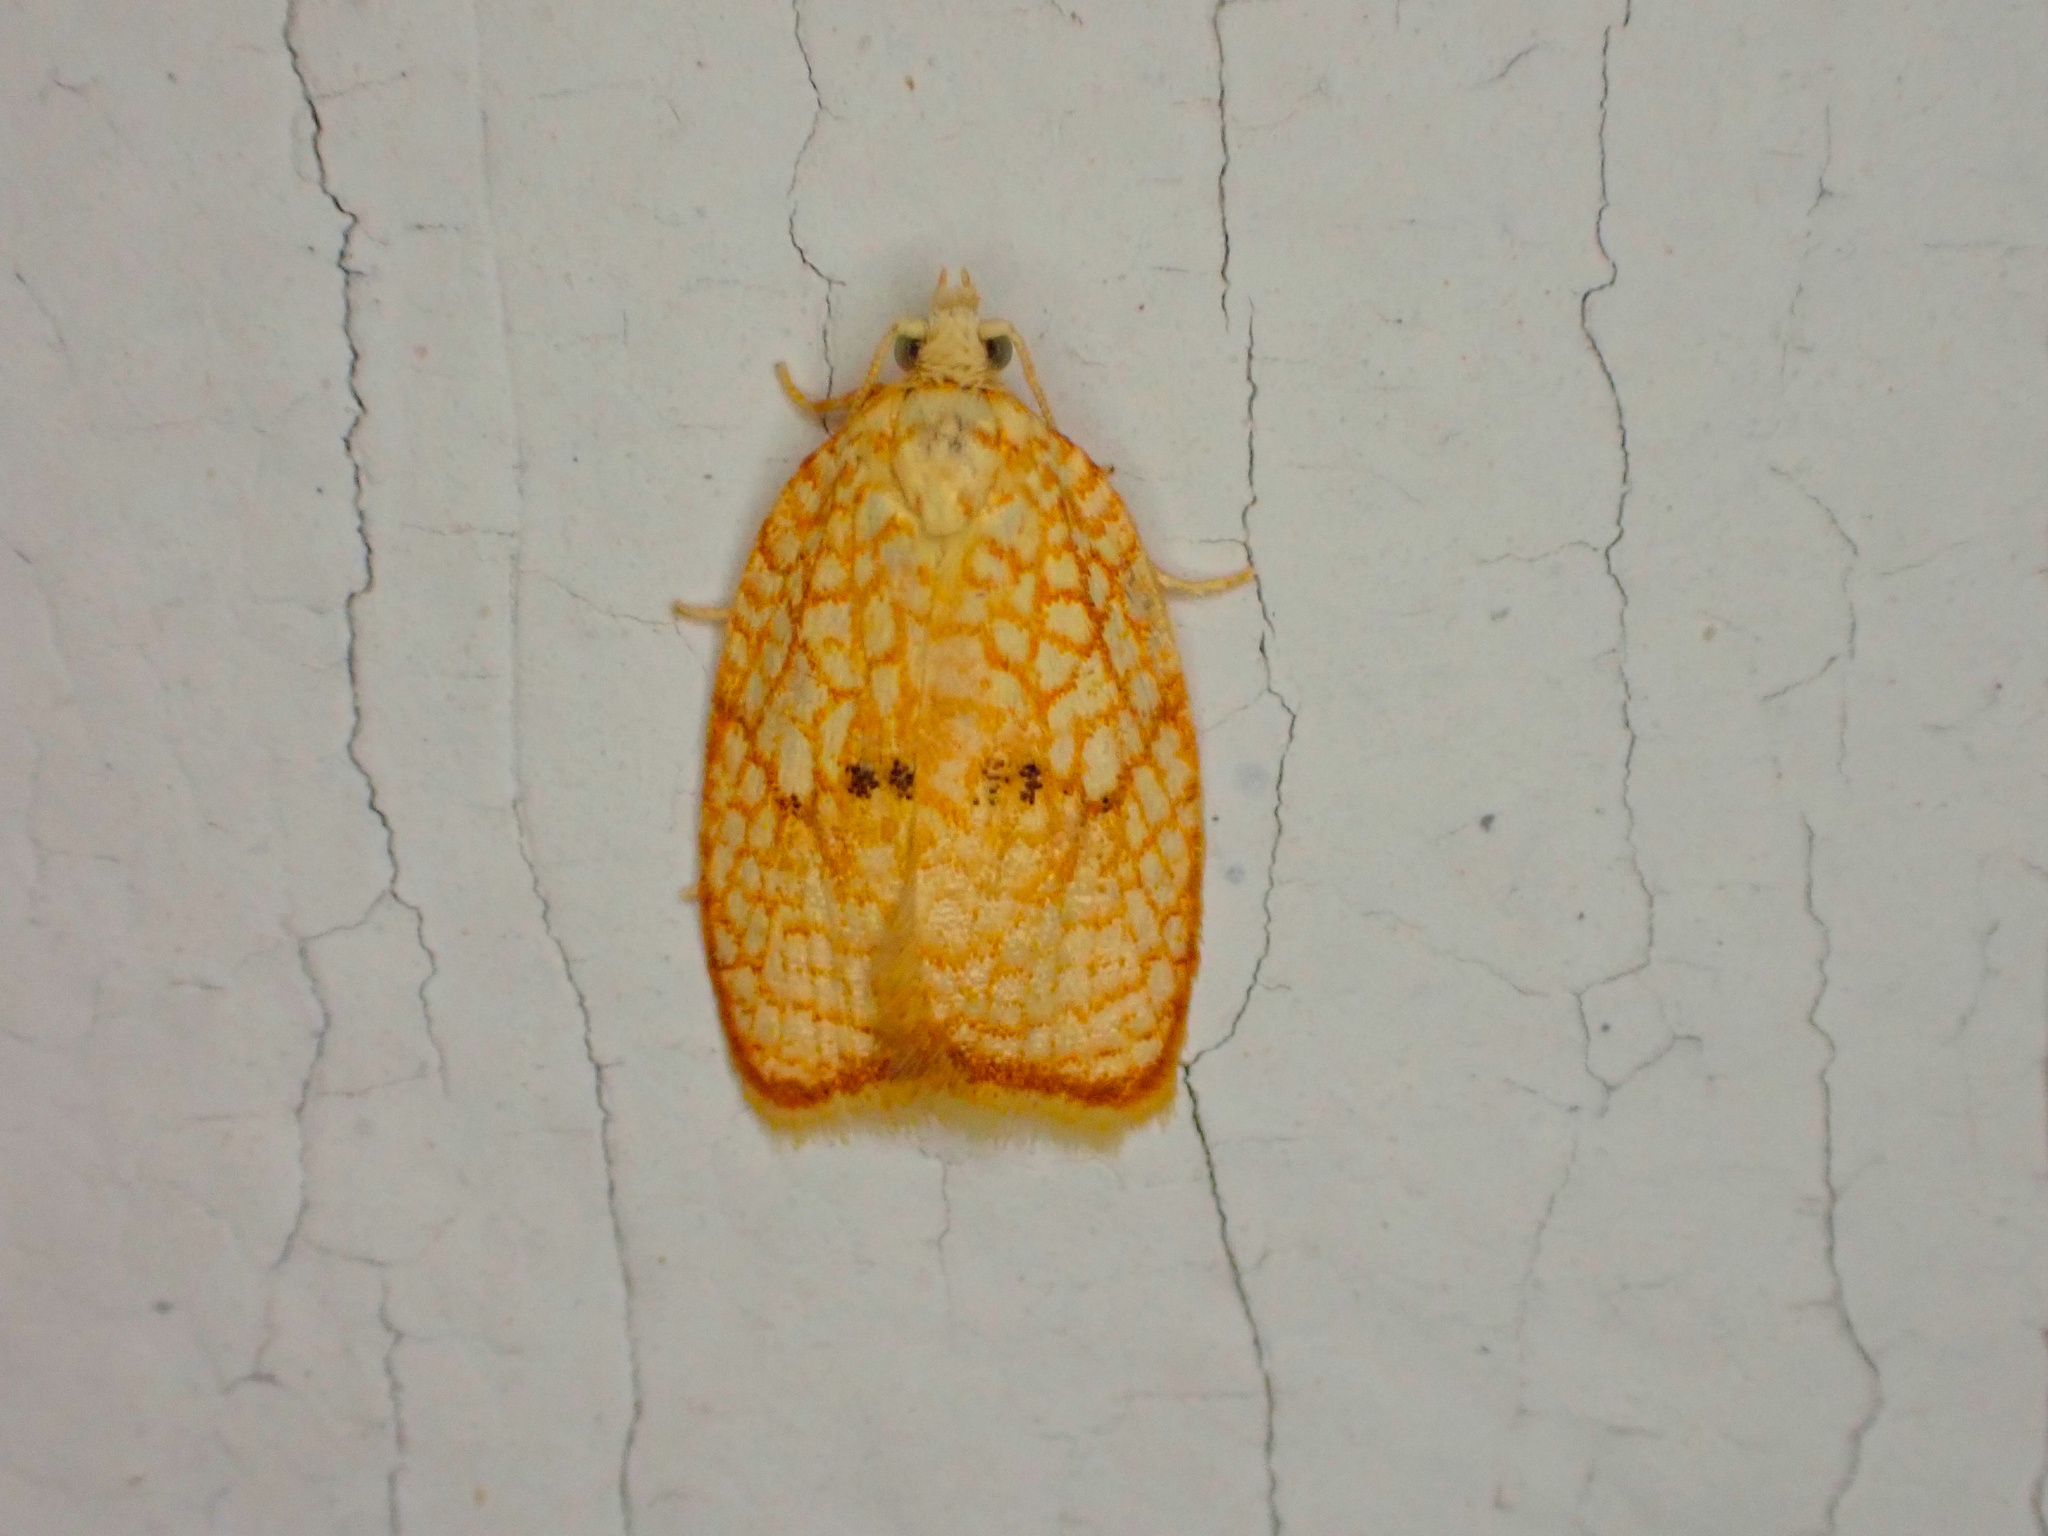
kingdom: Animalia
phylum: Arthropoda
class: Insecta
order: Lepidoptera
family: Tortricidae
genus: Acleris
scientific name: Acleris forsskaleana
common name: Maple button
